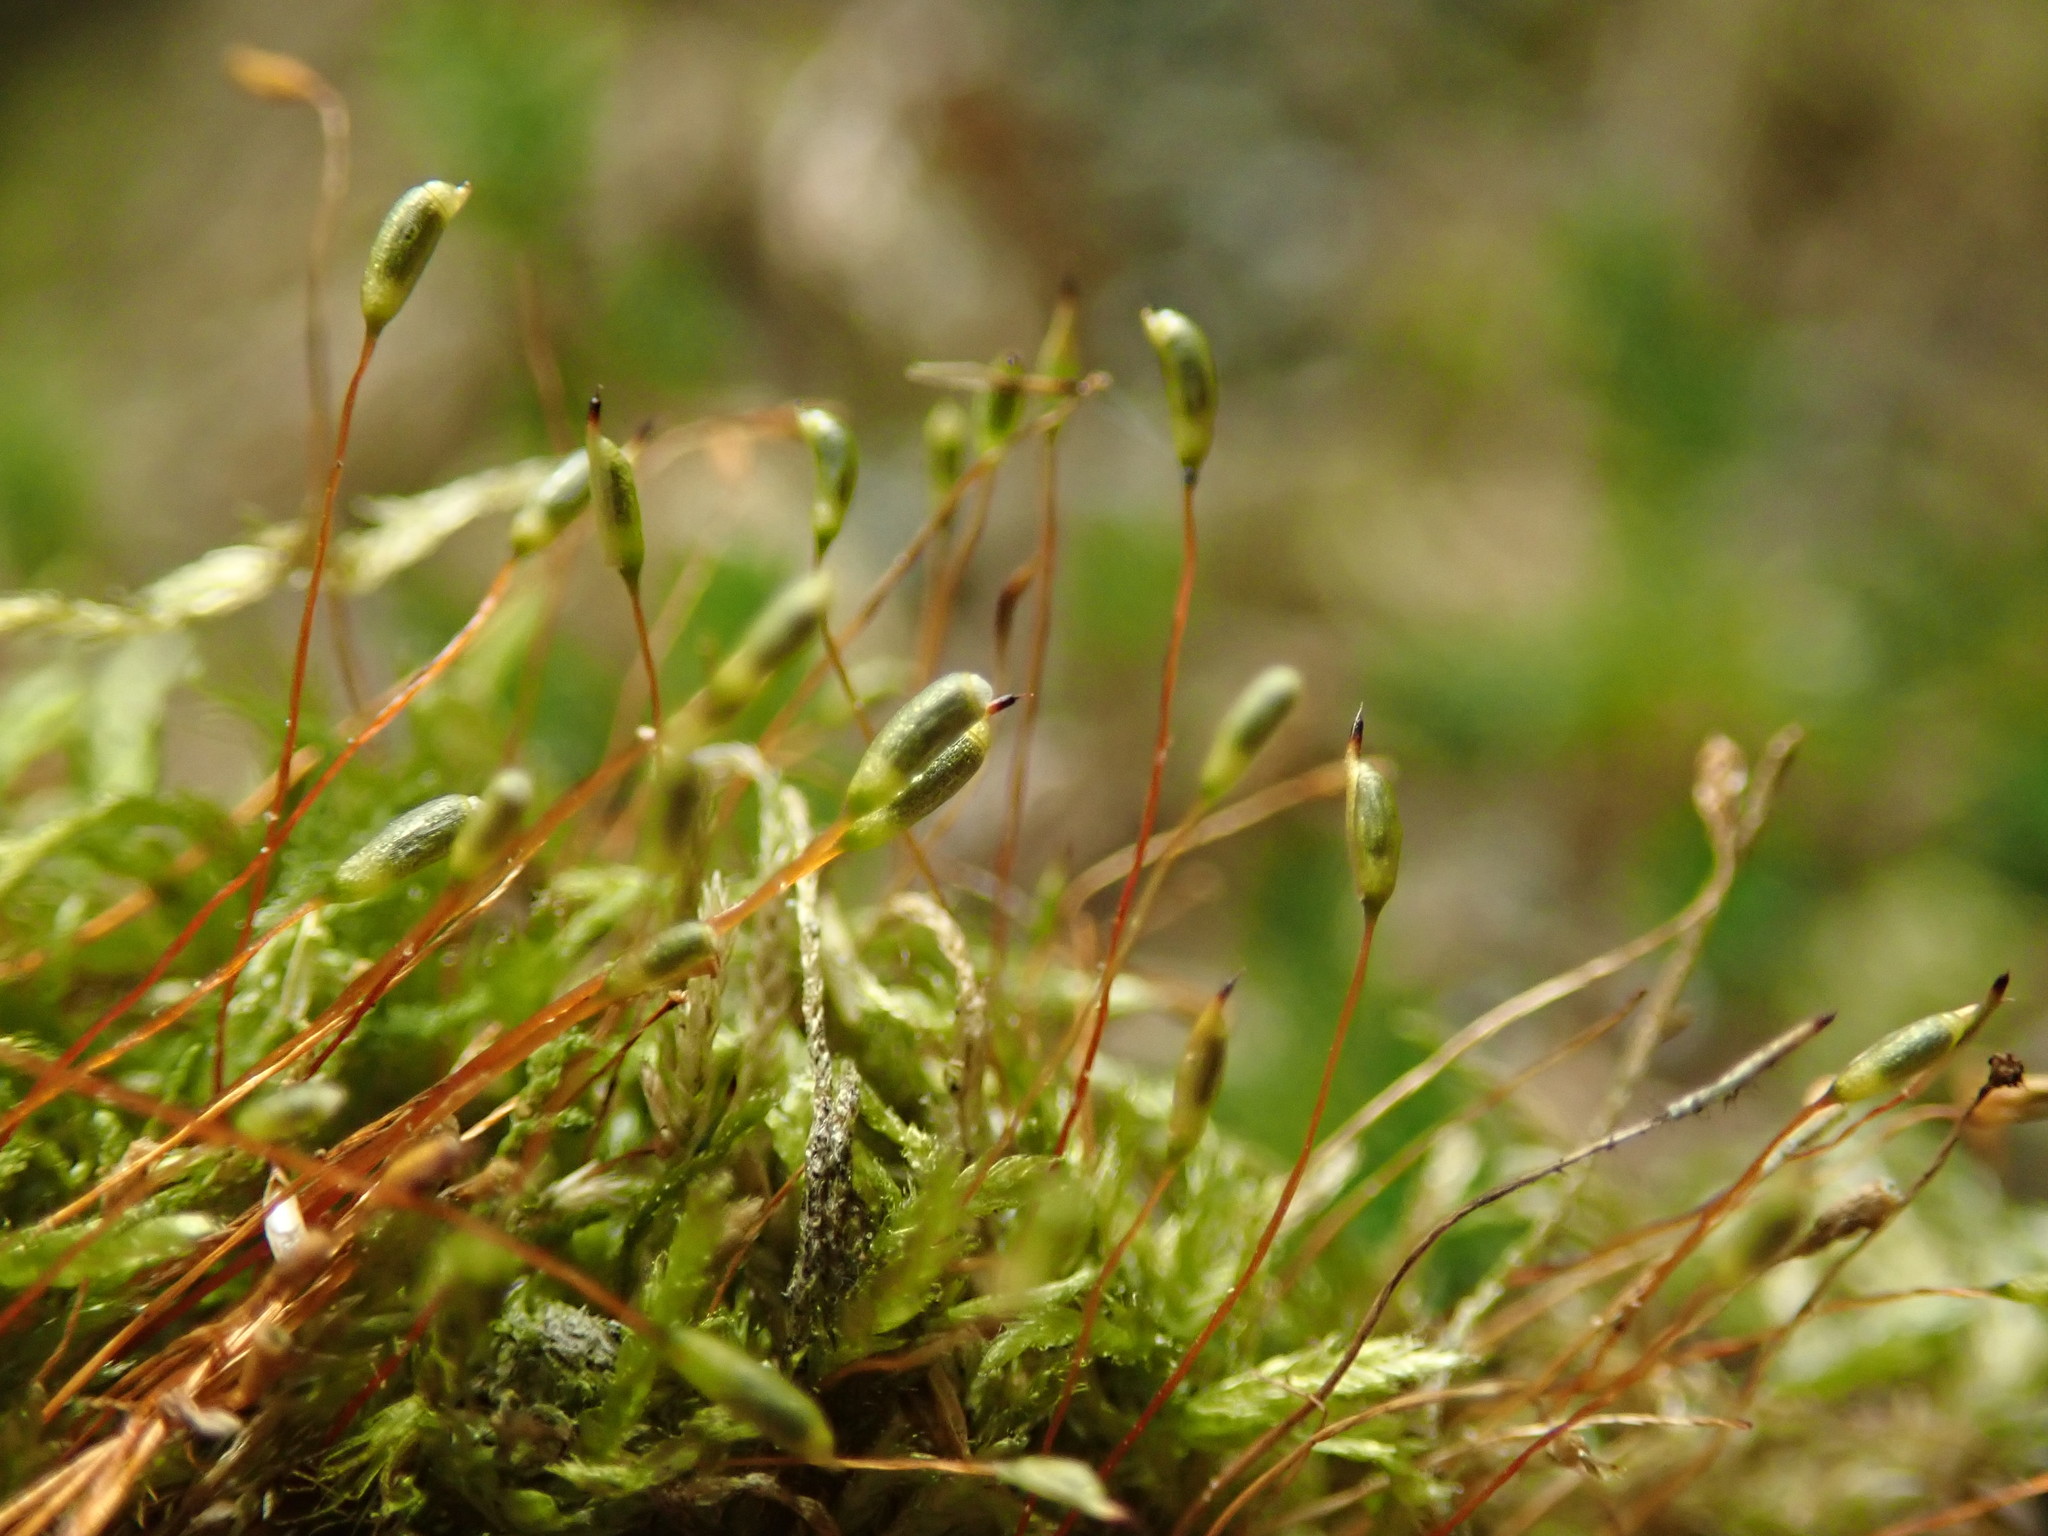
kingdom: Plantae
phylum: Bryophyta
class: Bryopsida
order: Hypnales
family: Plagiotheciaceae
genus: Rectithecium
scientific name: Rectithecium piliferum
